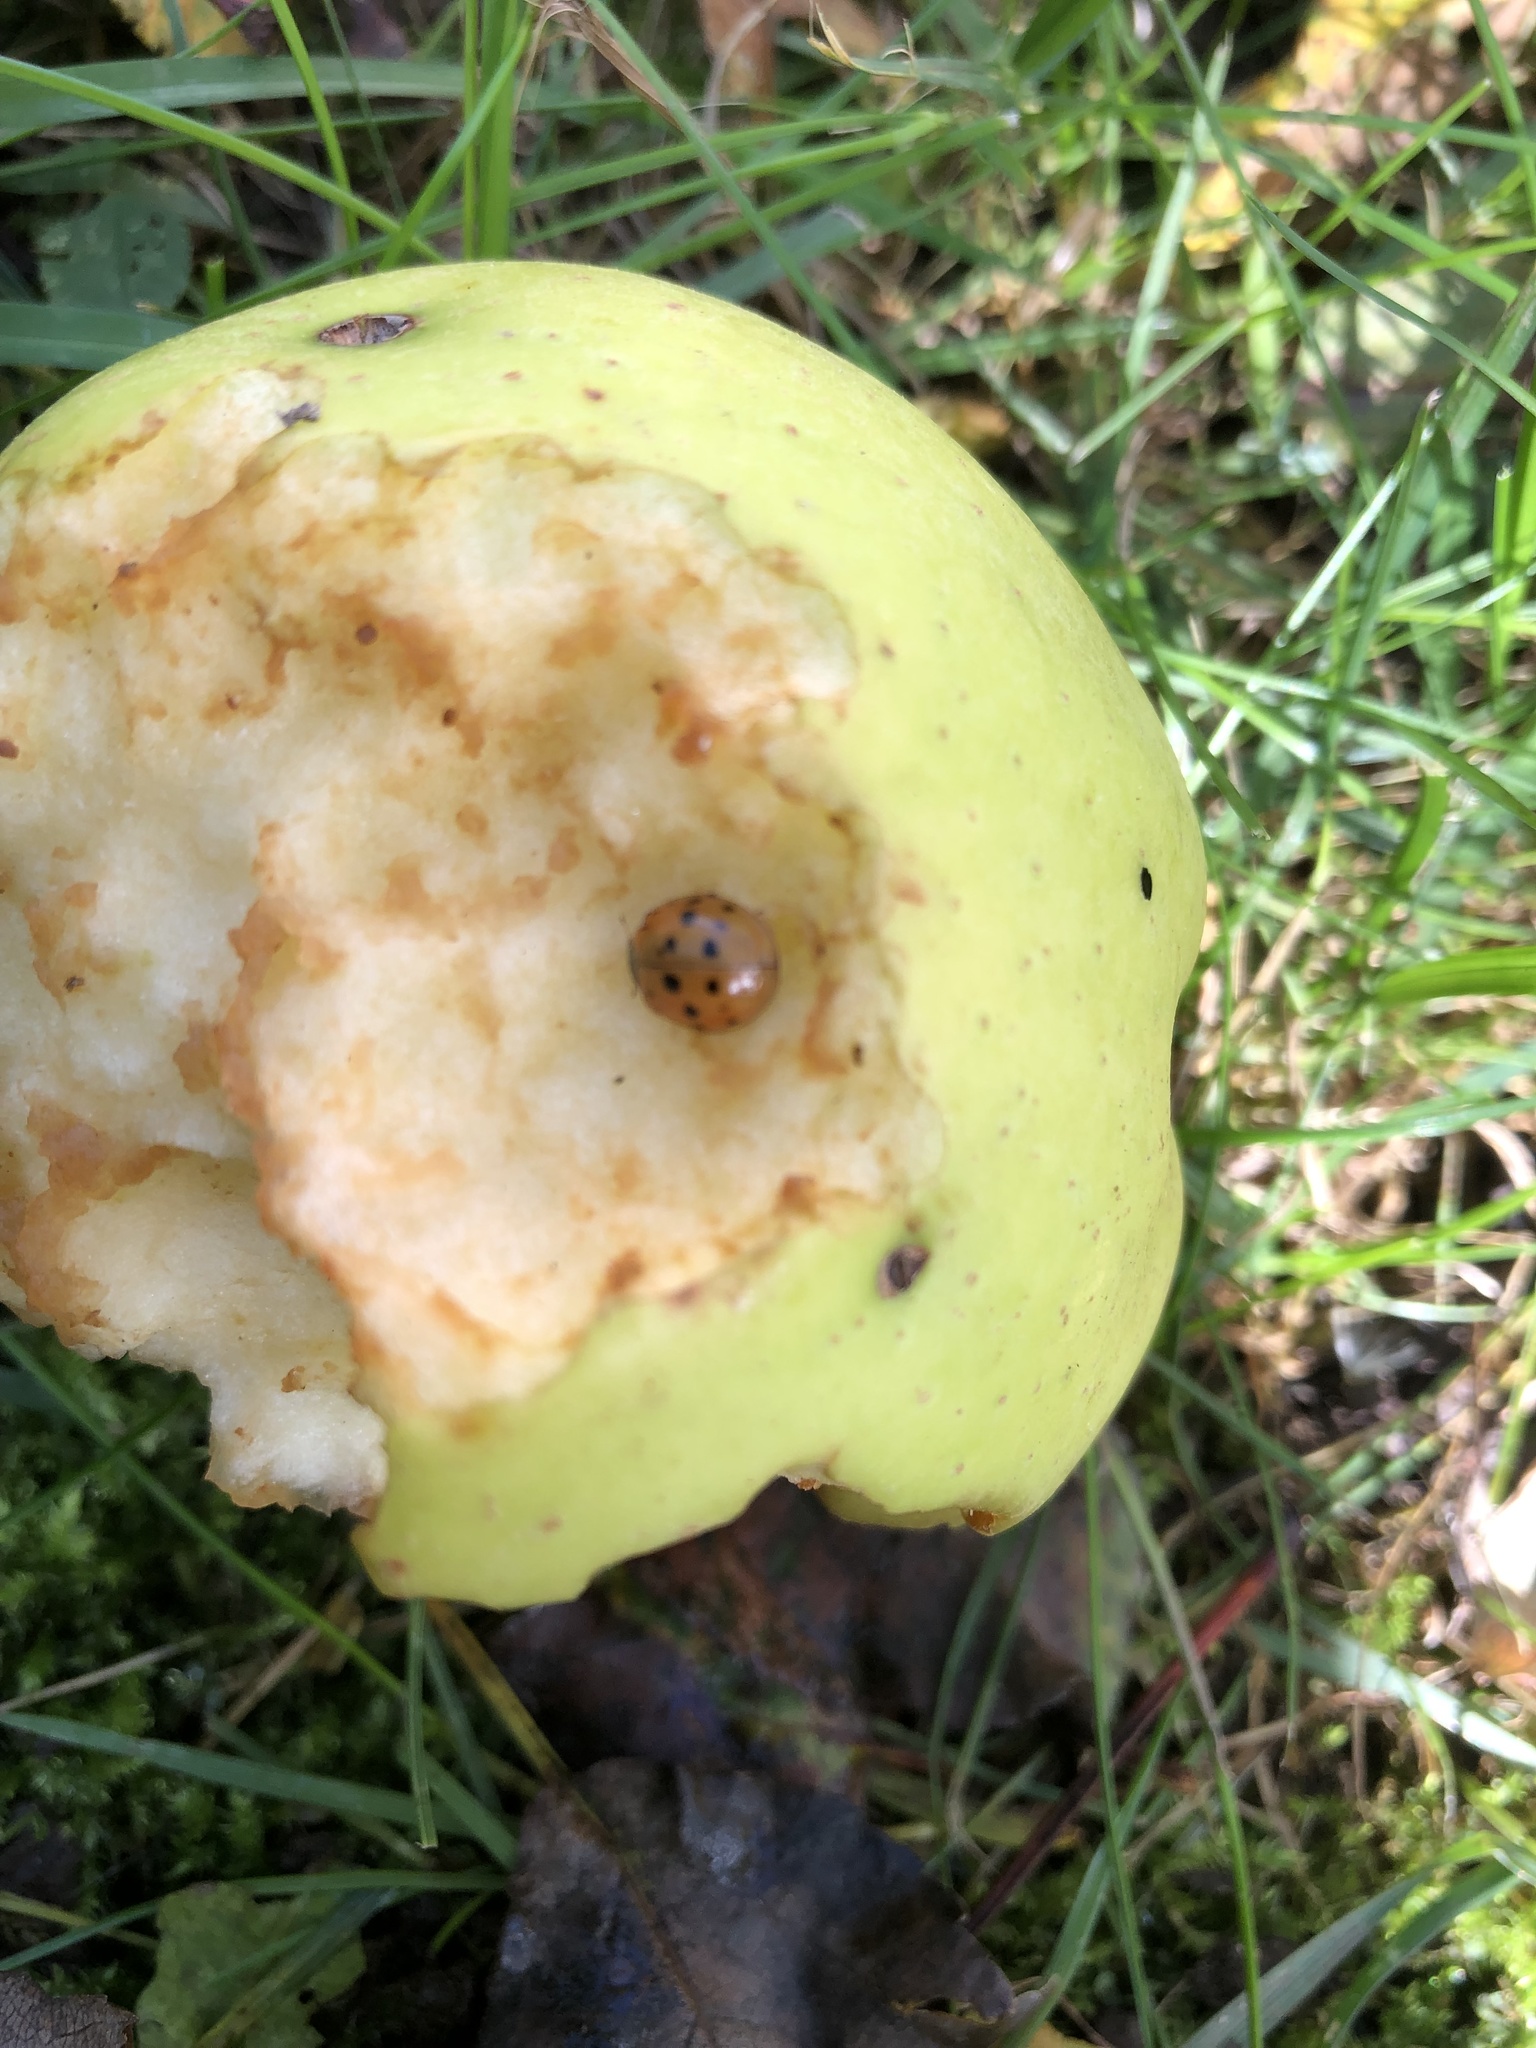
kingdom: Animalia
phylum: Arthropoda
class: Insecta
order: Coleoptera
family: Coccinellidae
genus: Harmonia
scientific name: Harmonia axyridis
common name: Harlequin ladybird
